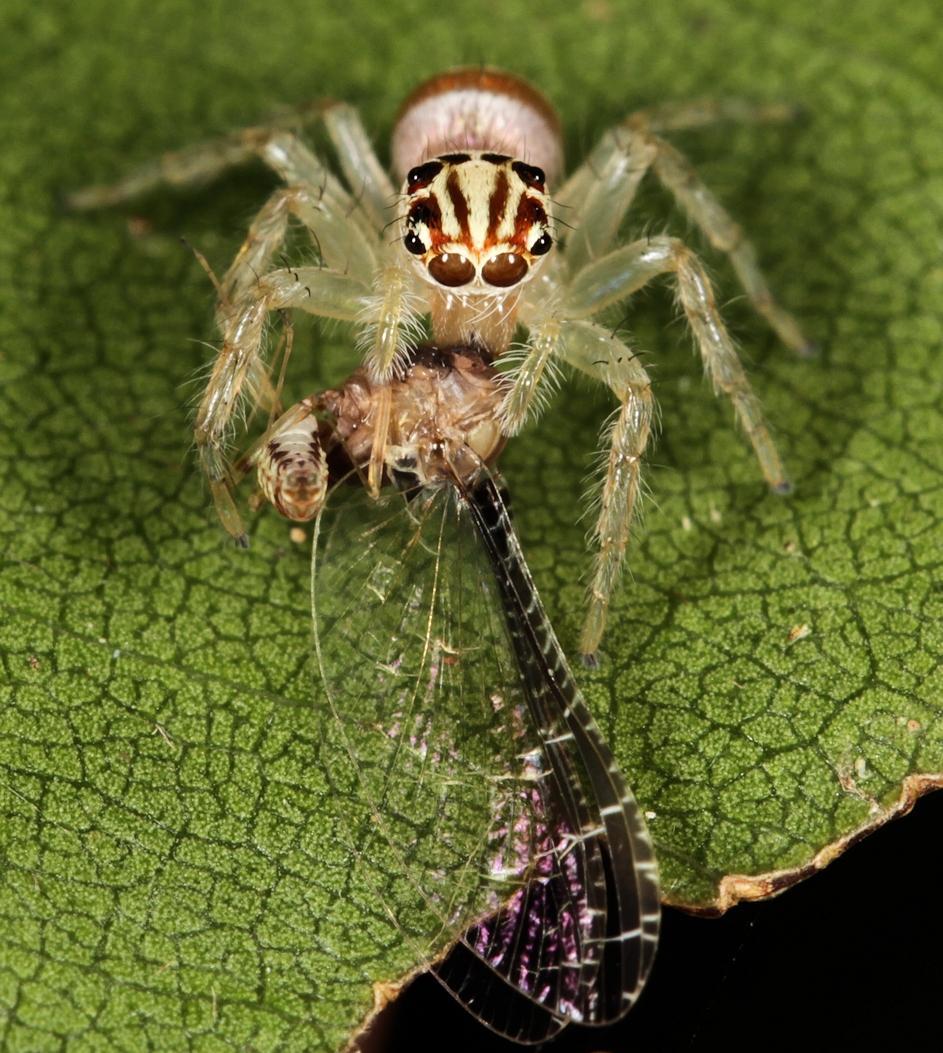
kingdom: Animalia
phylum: Arthropoda
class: Arachnida
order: Araneae
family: Salticidae
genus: Brancus
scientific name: Brancus mustelus
